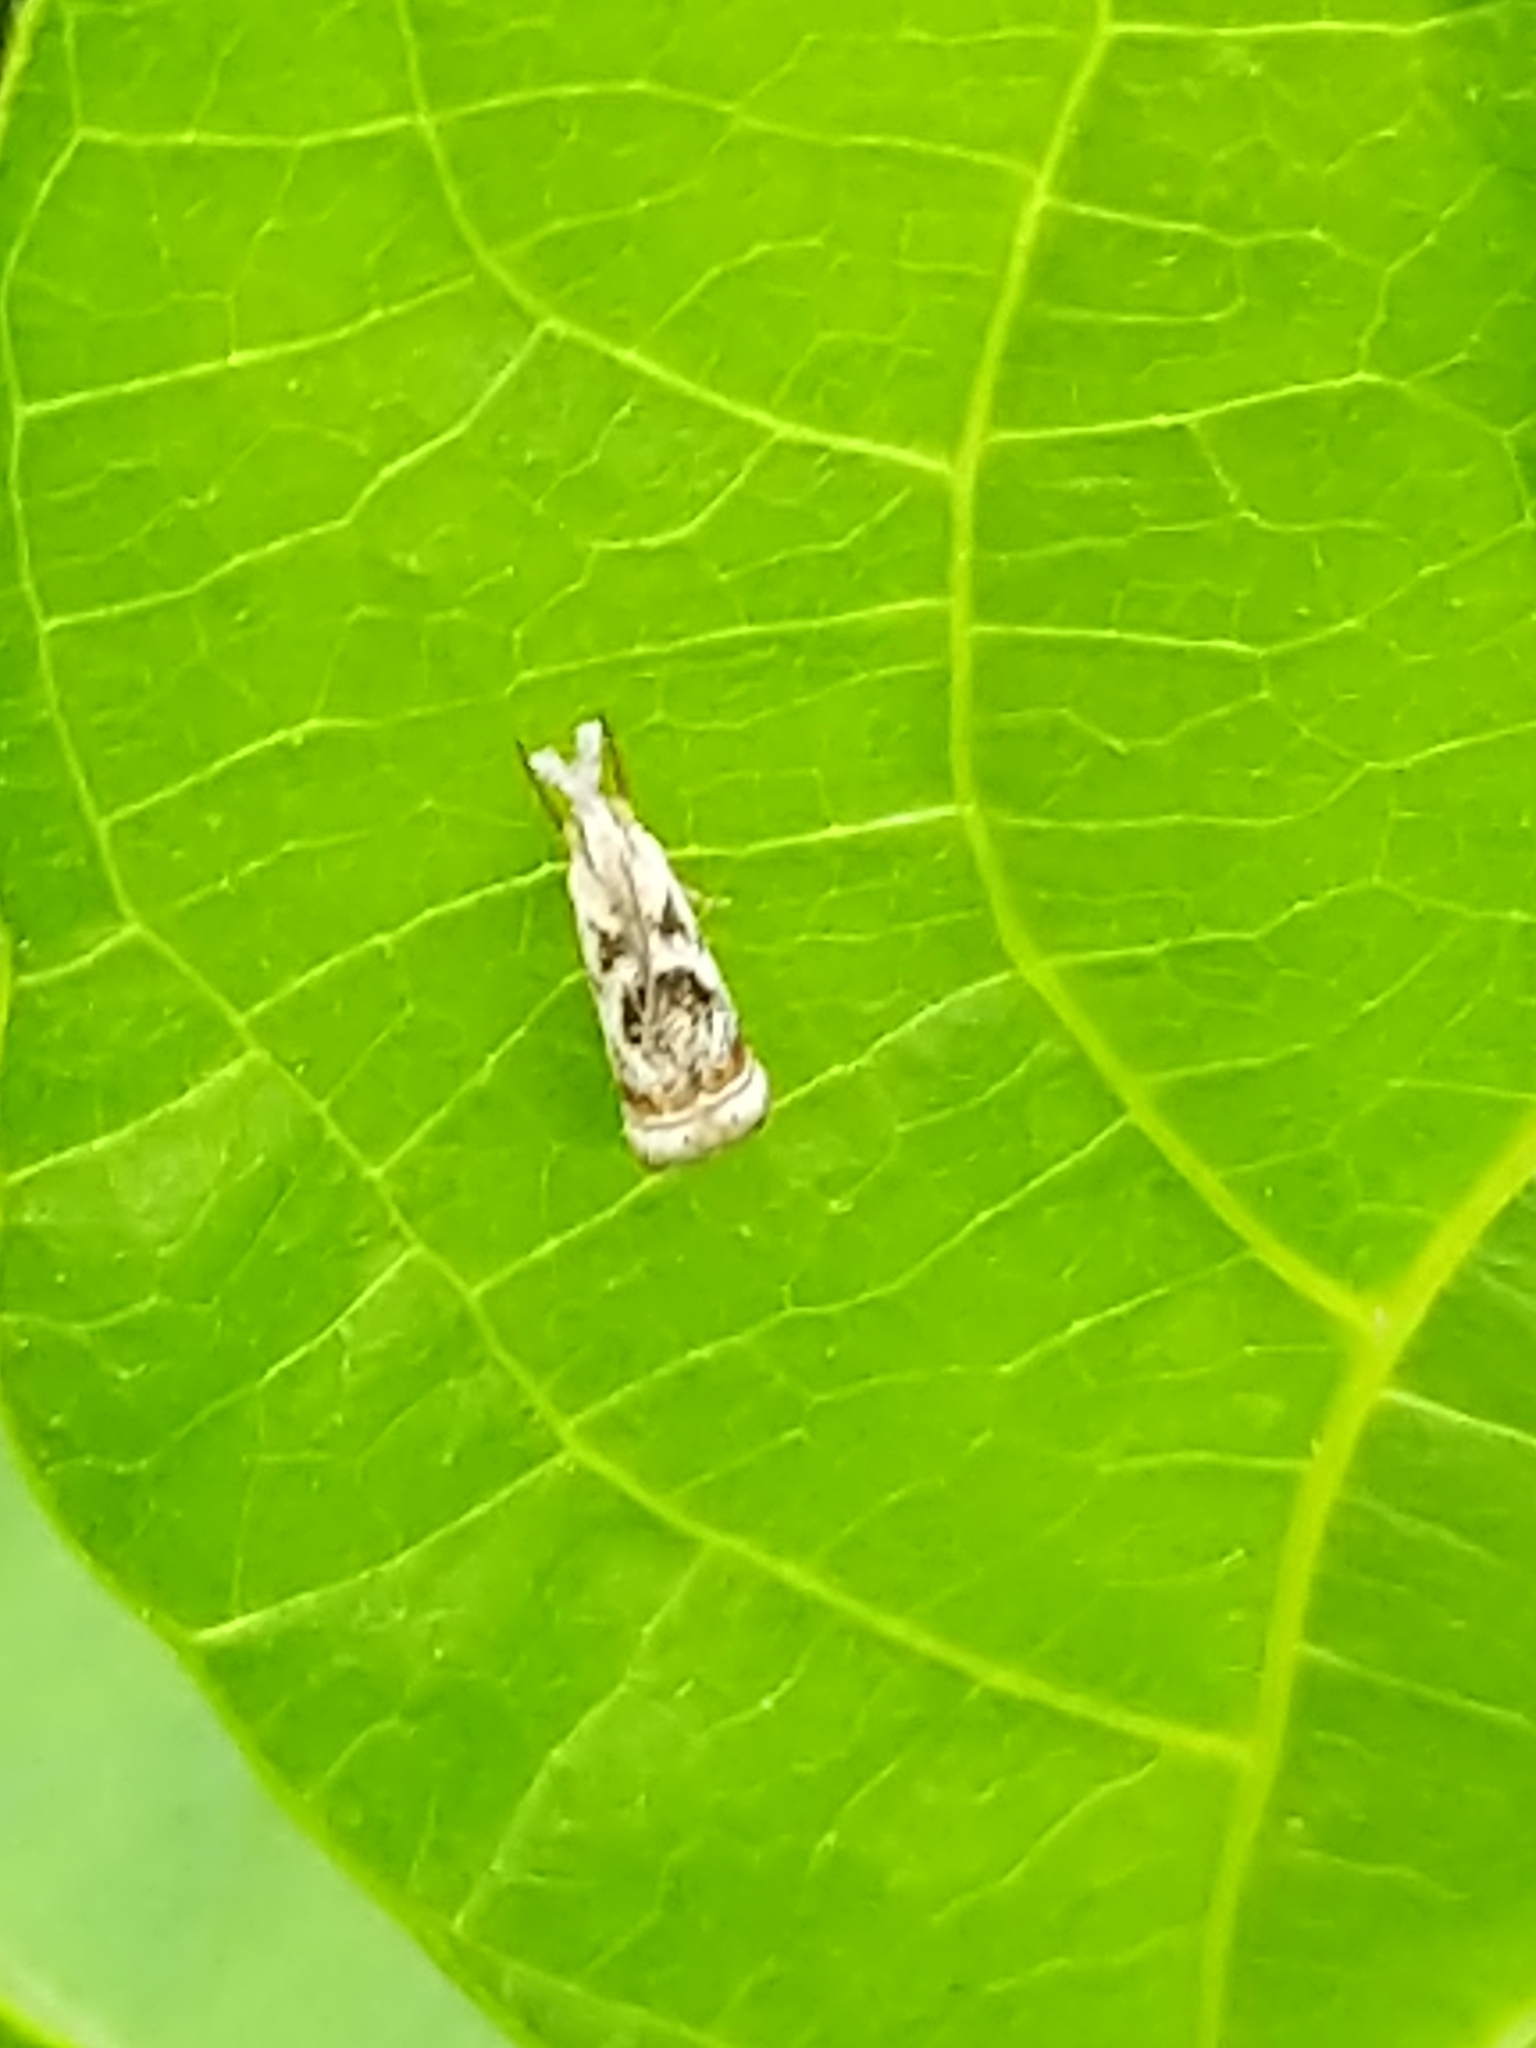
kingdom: Animalia
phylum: Arthropoda
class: Insecta
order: Lepidoptera
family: Crambidae
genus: Microcrambus
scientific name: Microcrambus elegans
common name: Elegant grass-veneer
